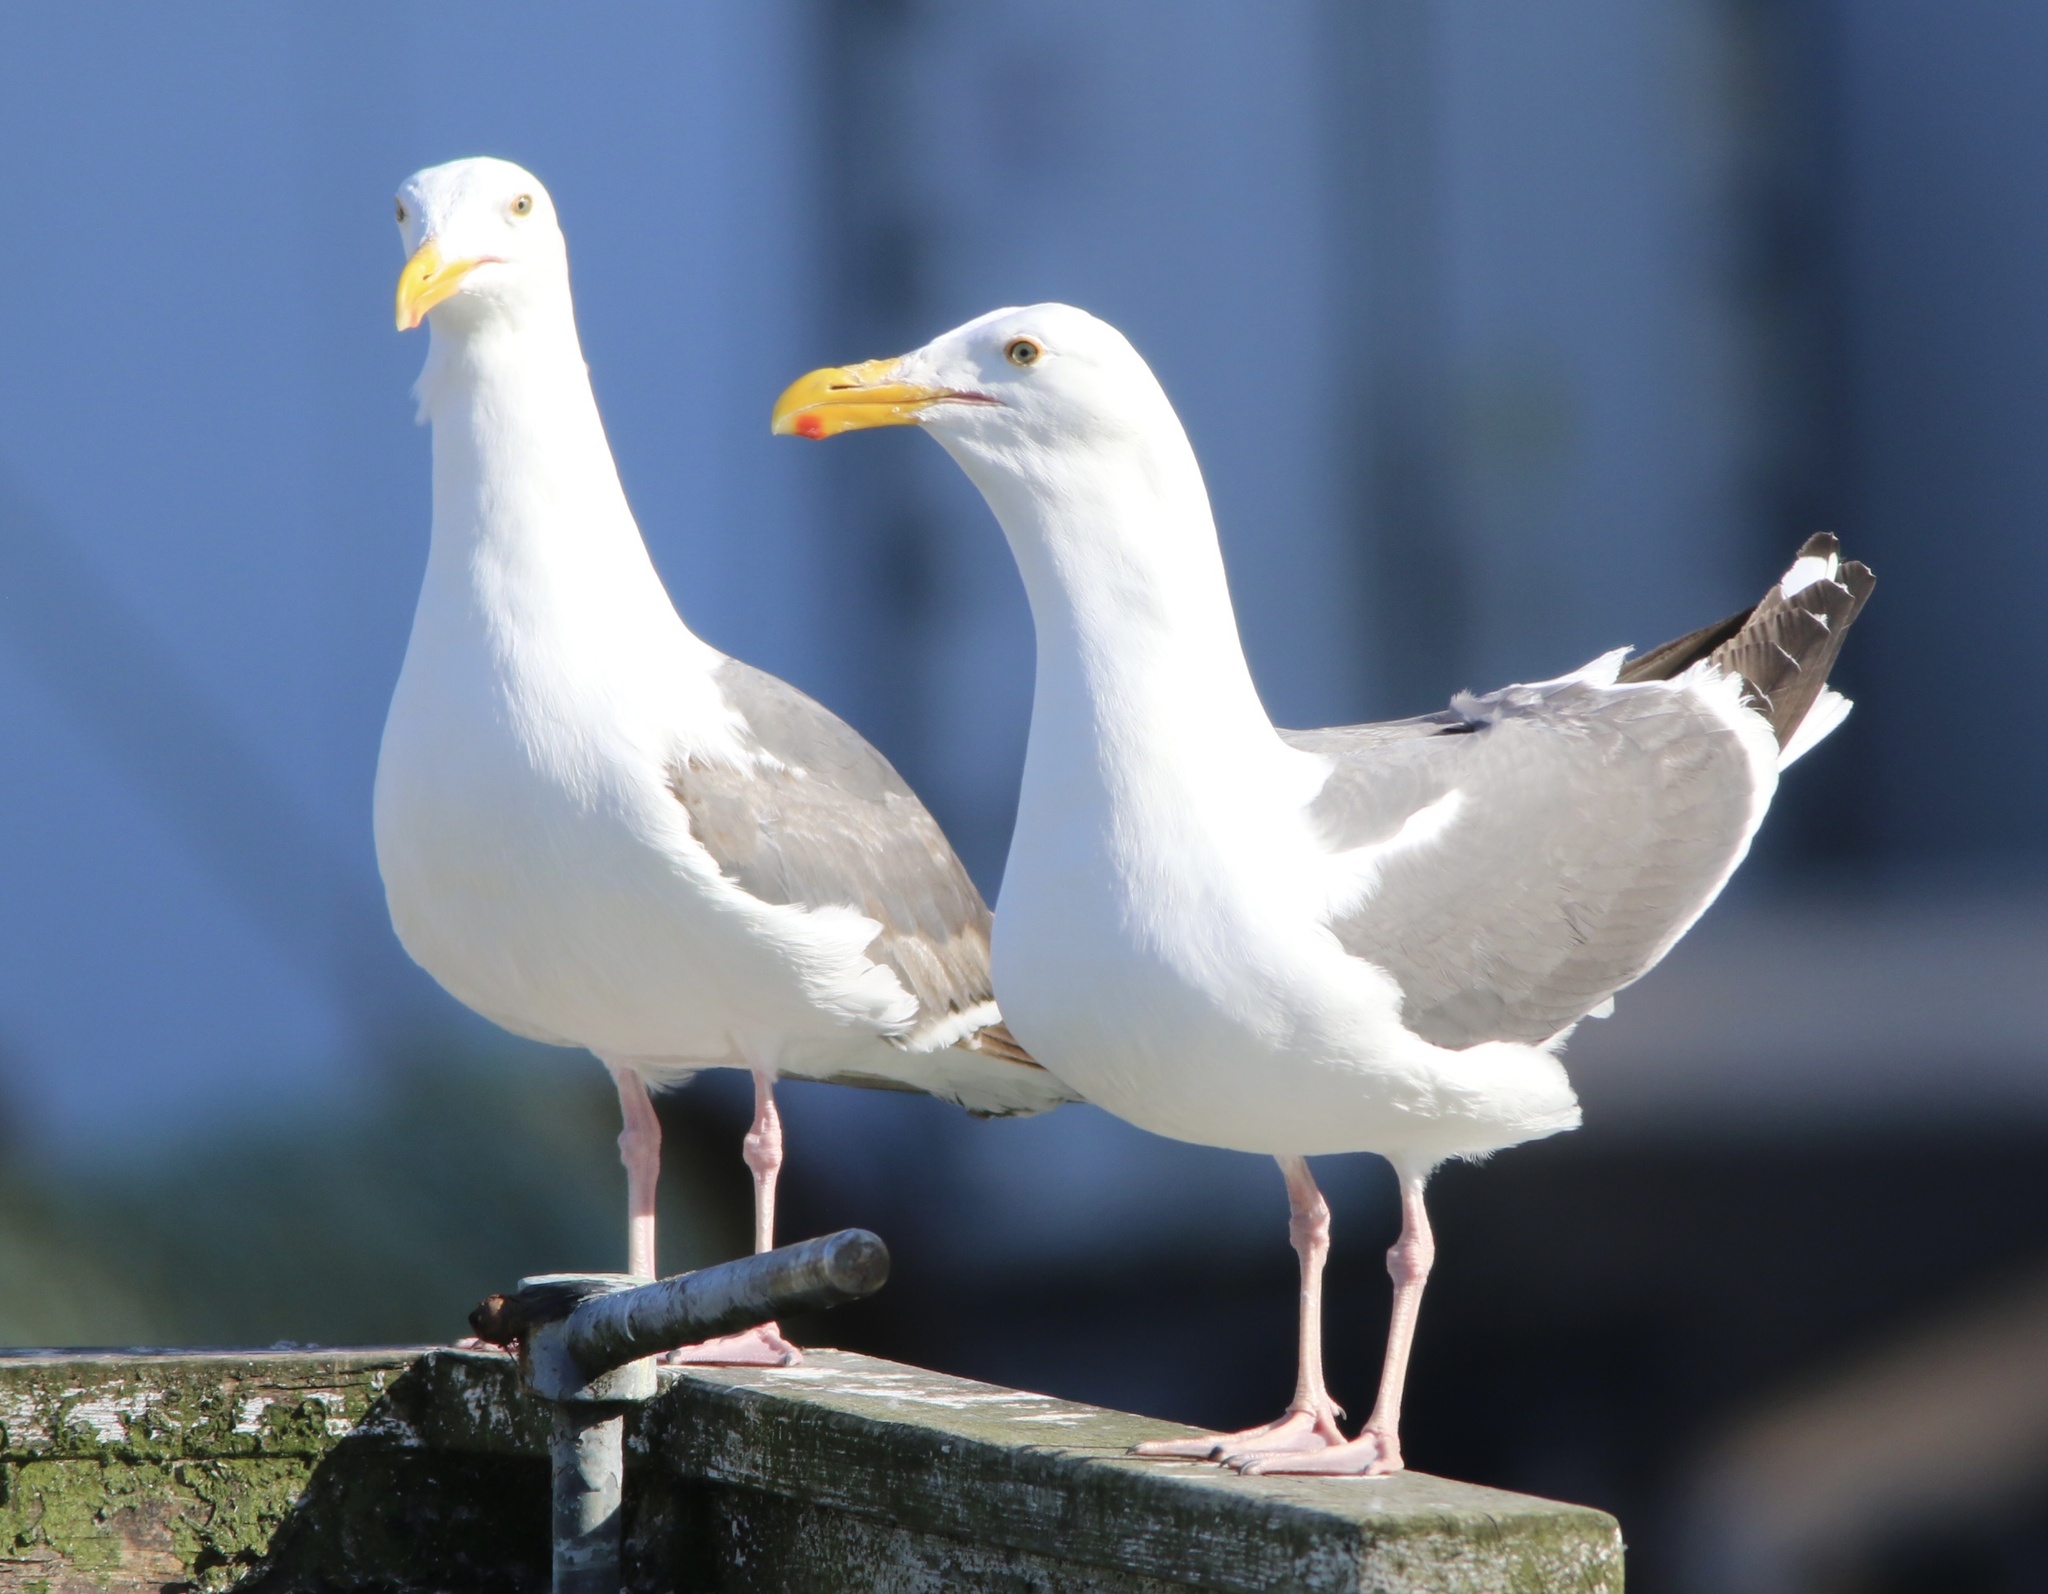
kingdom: Animalia
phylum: Chordata
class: Aves
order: Charadriiformes
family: Laridae
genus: Larus
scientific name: Larus occidentalis
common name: Western gull
